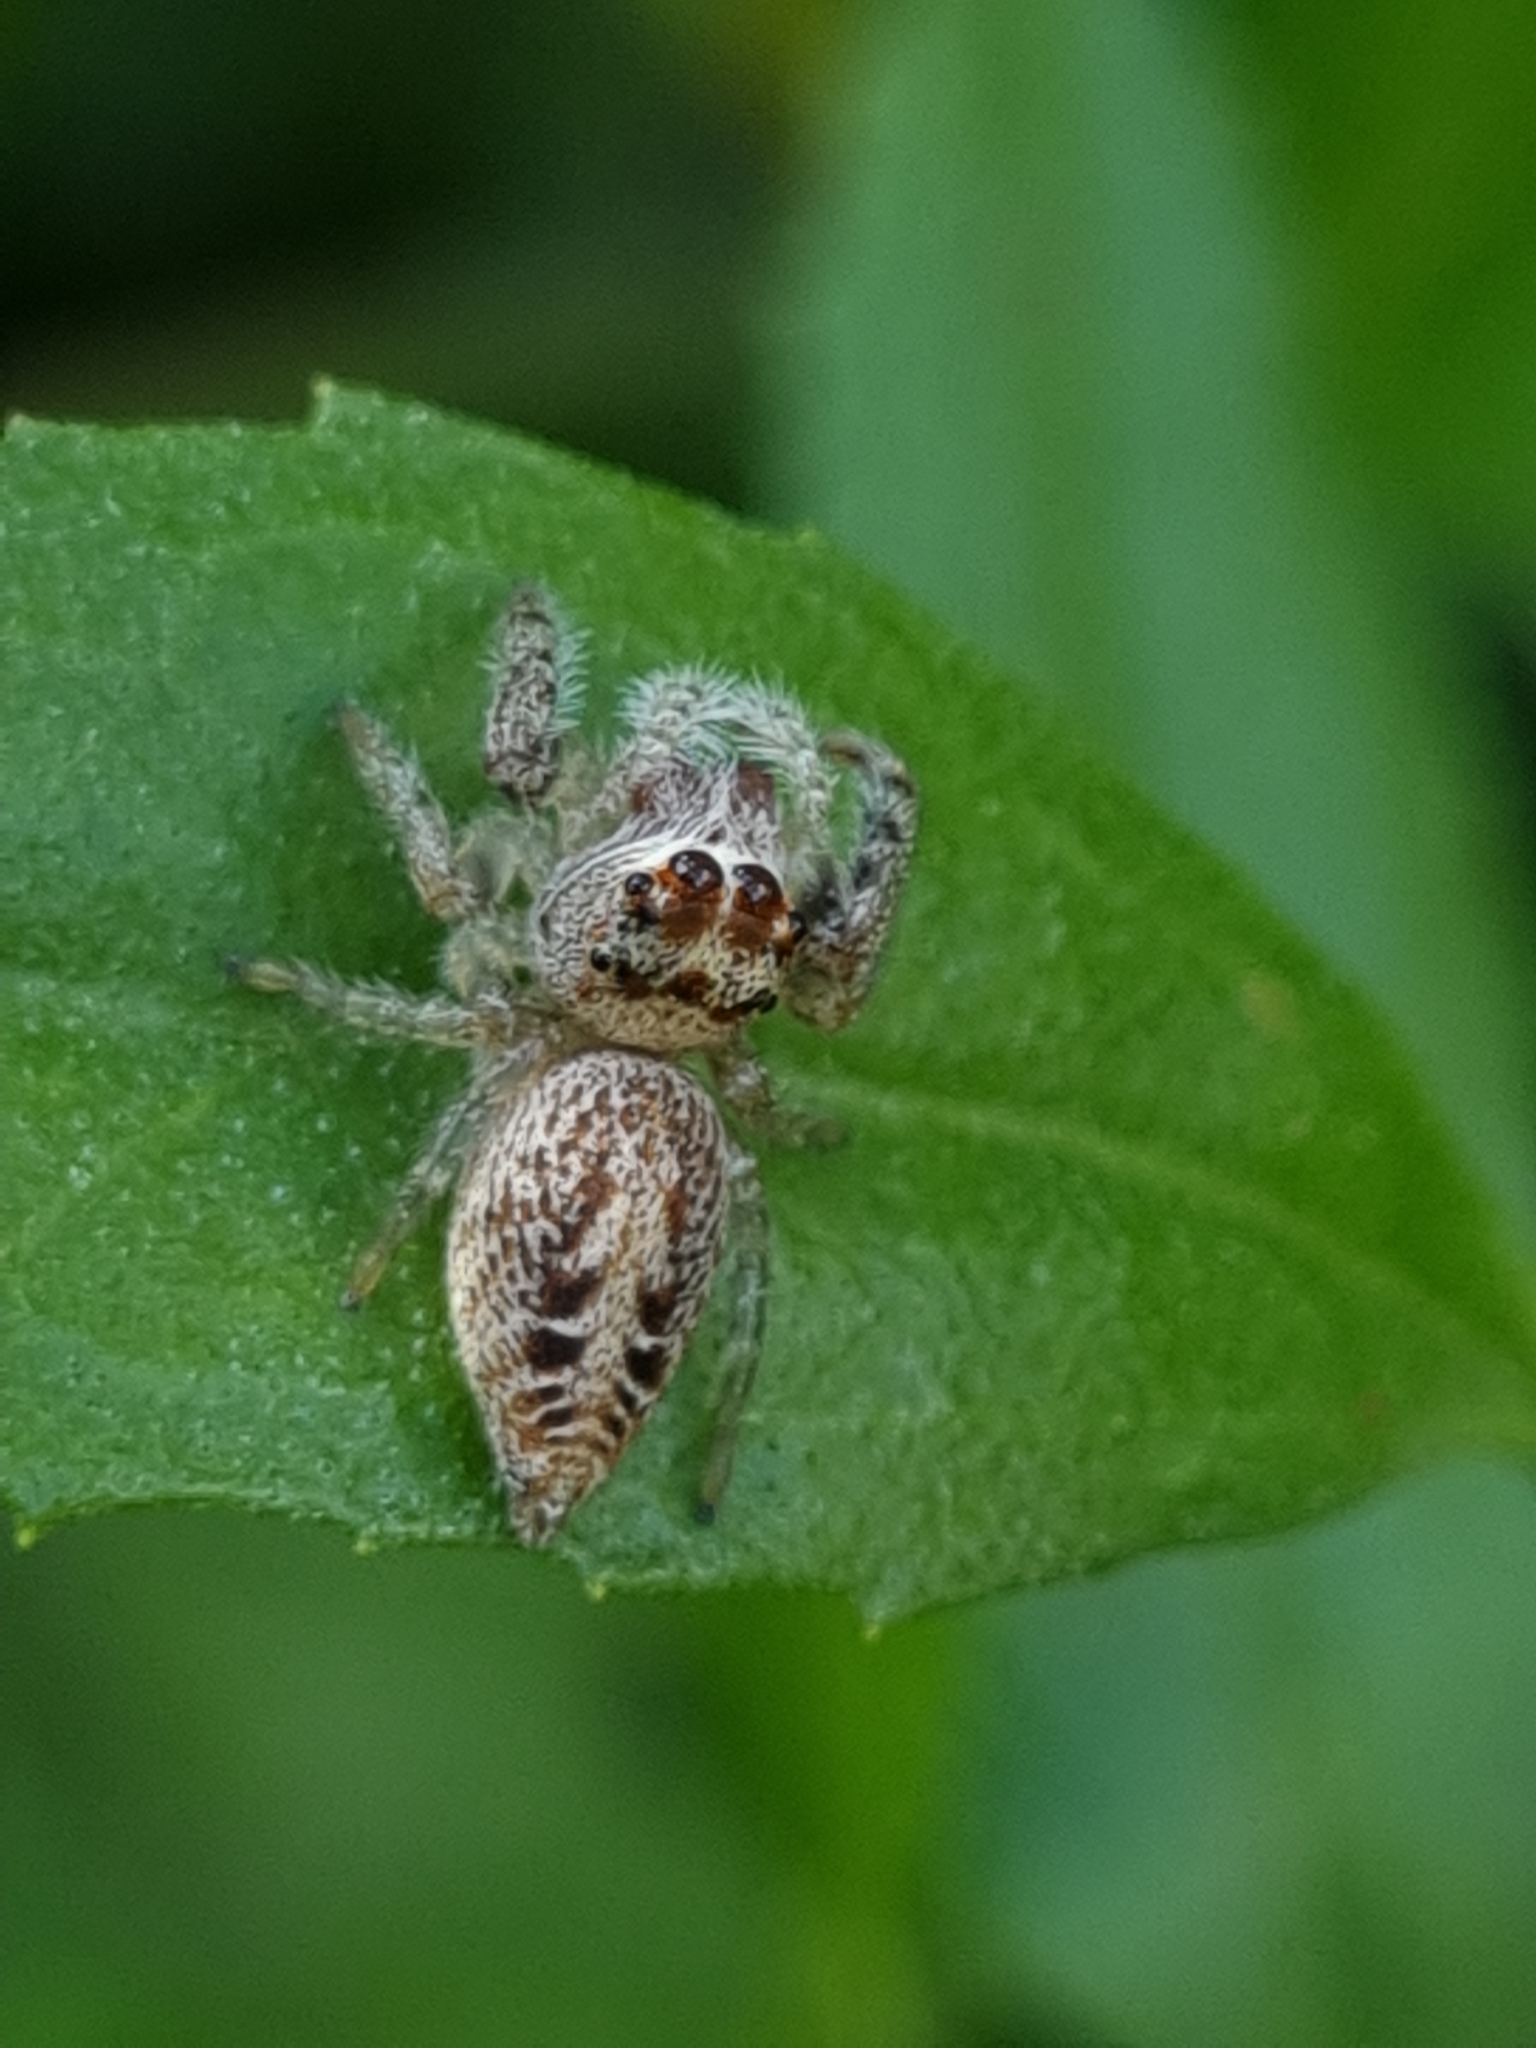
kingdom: Animalia
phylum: Arthropoda
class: Arachnida
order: Araneae
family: Salticidae
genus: Opisthoncus
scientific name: Opisthoncus
